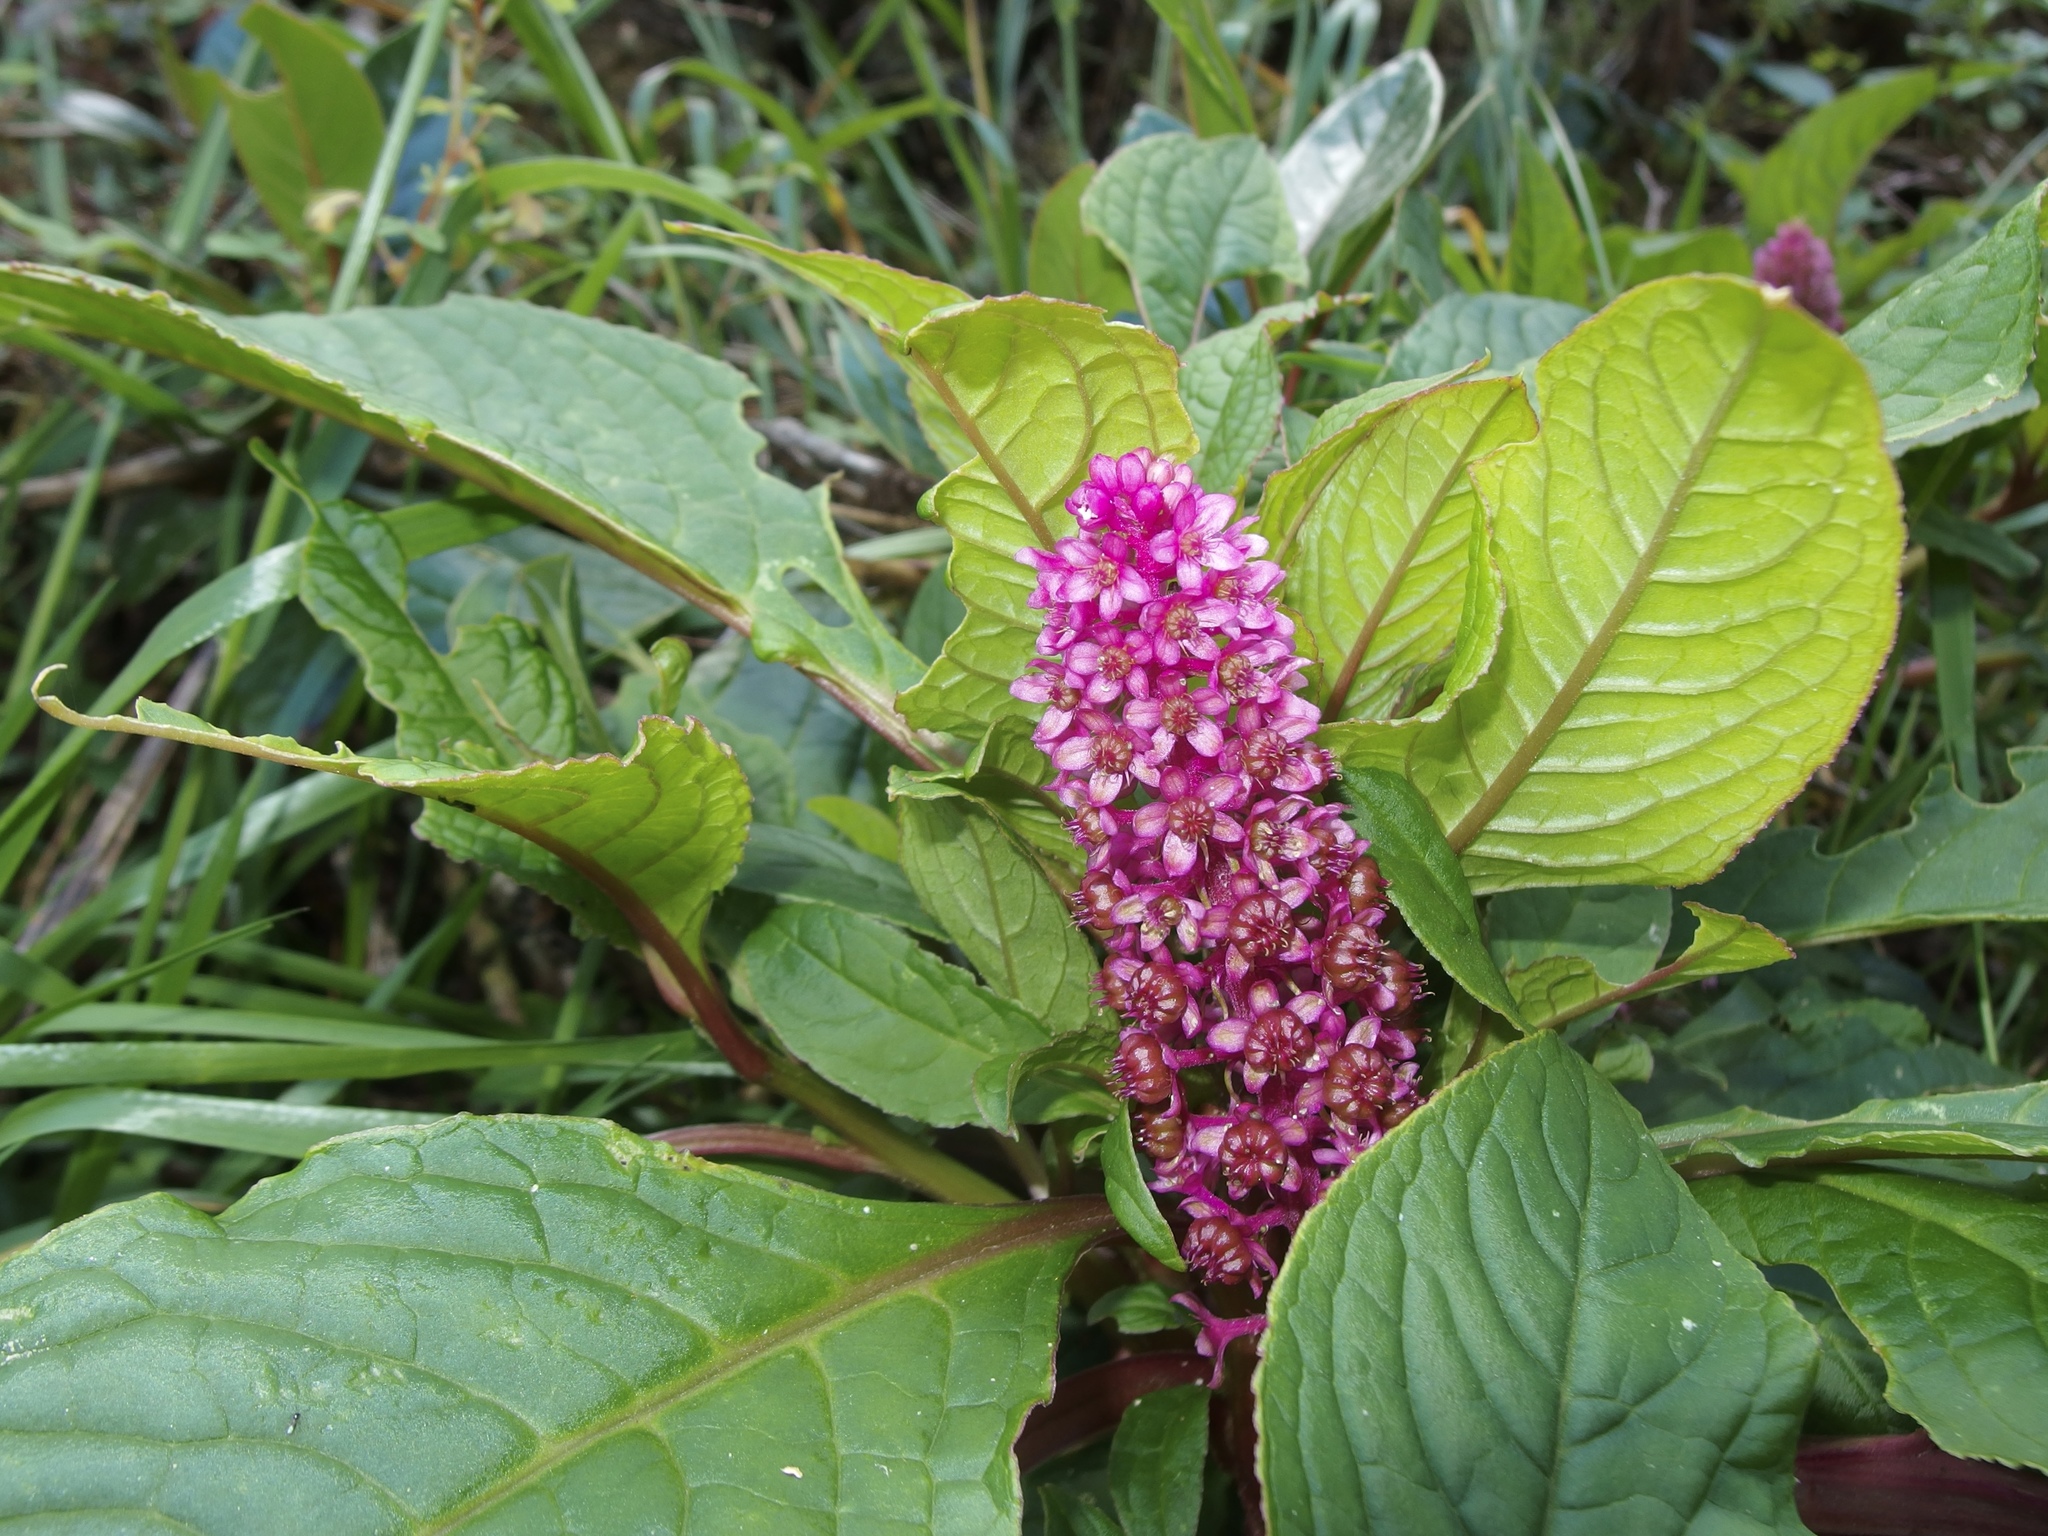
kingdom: Plantae
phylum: Tracheophyta
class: Magnoliopsida
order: Caryophyllales
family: Phytolaccaceae
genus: Phytolacca
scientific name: Phytolacca bogotensis
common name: Southern pokeweed
